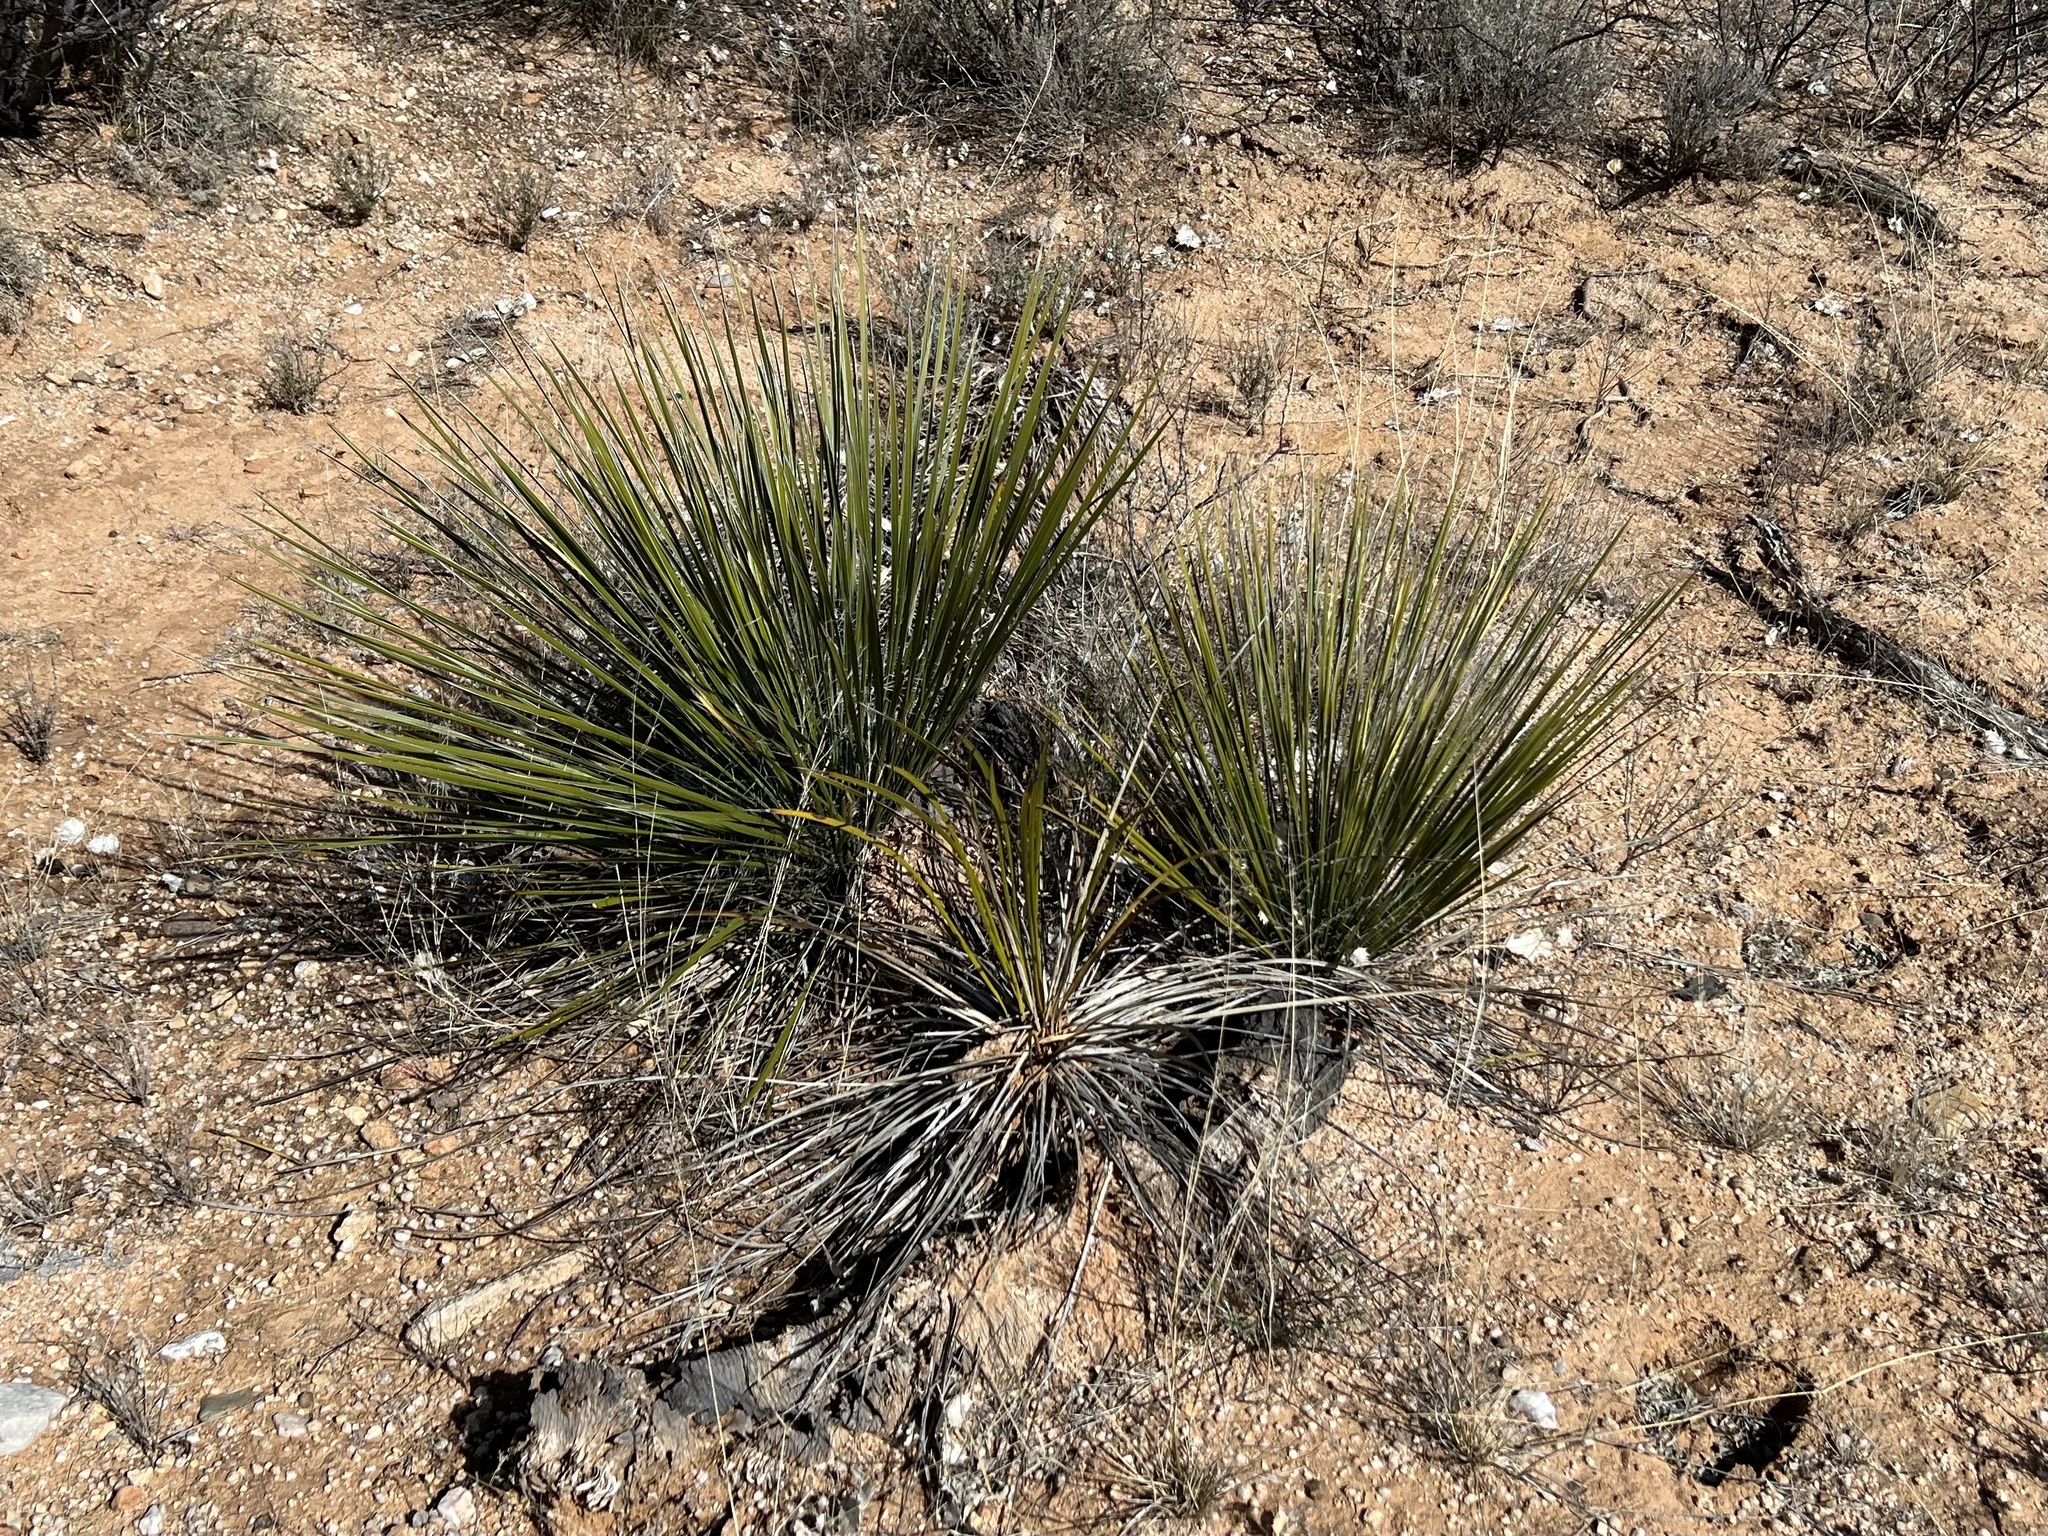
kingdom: Plantae
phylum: Tracheophyta
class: Liliopsida
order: Asparagales
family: Asparagaceae
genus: Yucca
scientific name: Yucca elata
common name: Palmella
